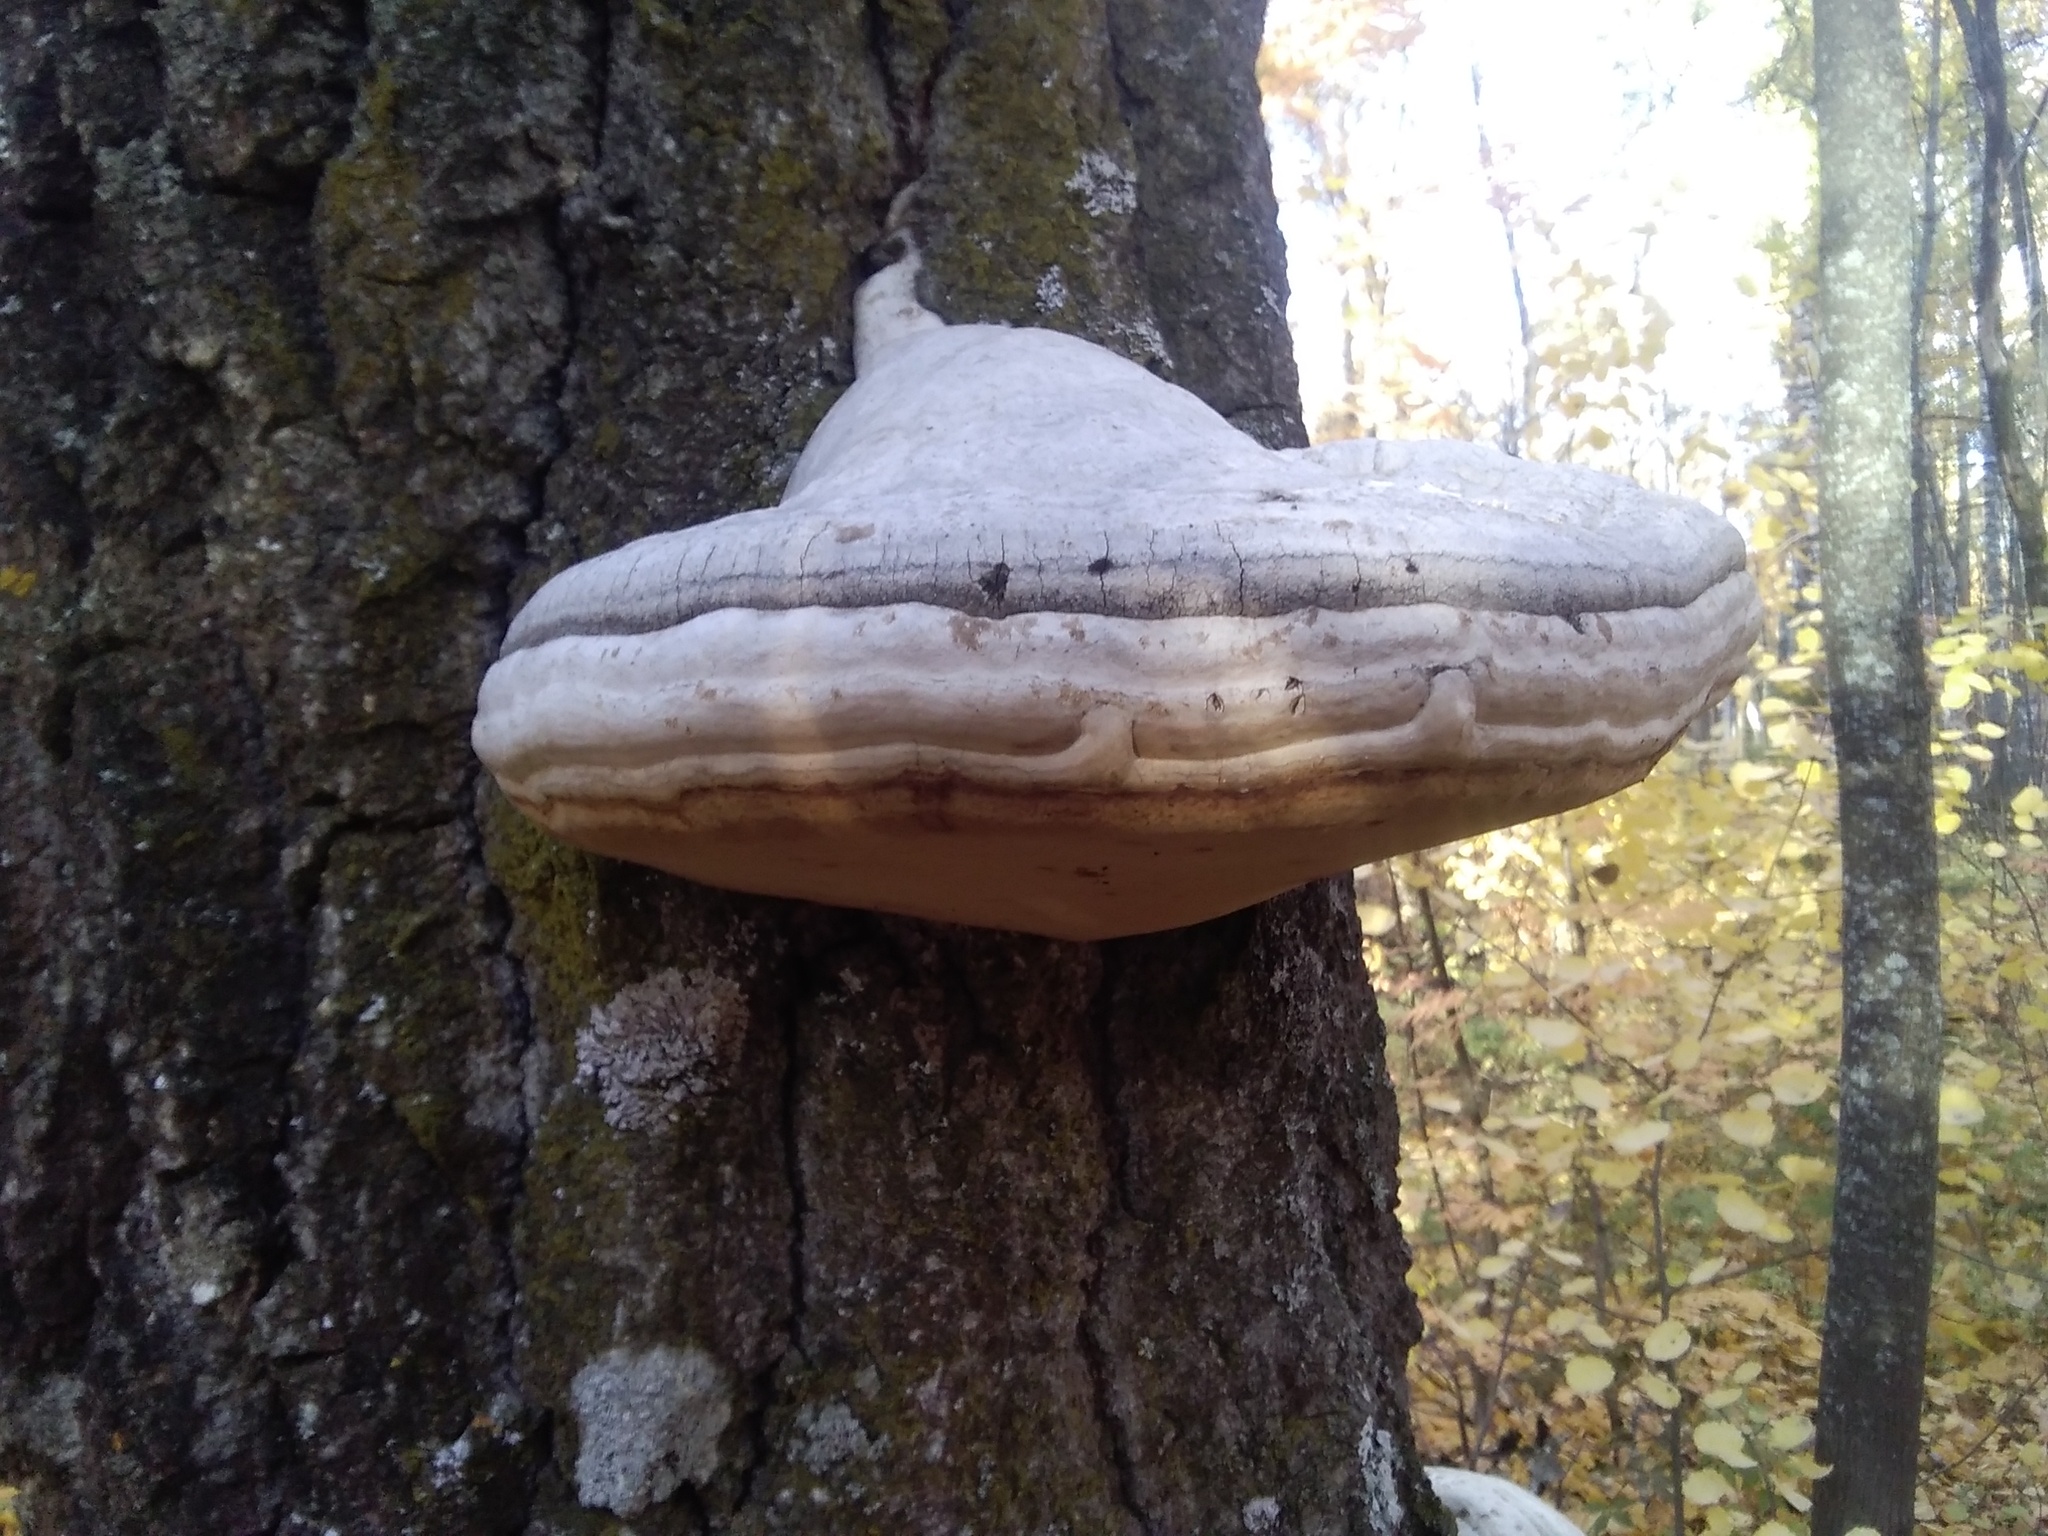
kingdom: Fungi
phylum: Basidiomycota
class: Agaricomycetes
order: Polyporales
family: Polyporaceae
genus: Fomes
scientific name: Fomes fomentarius
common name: Hoof fungus
